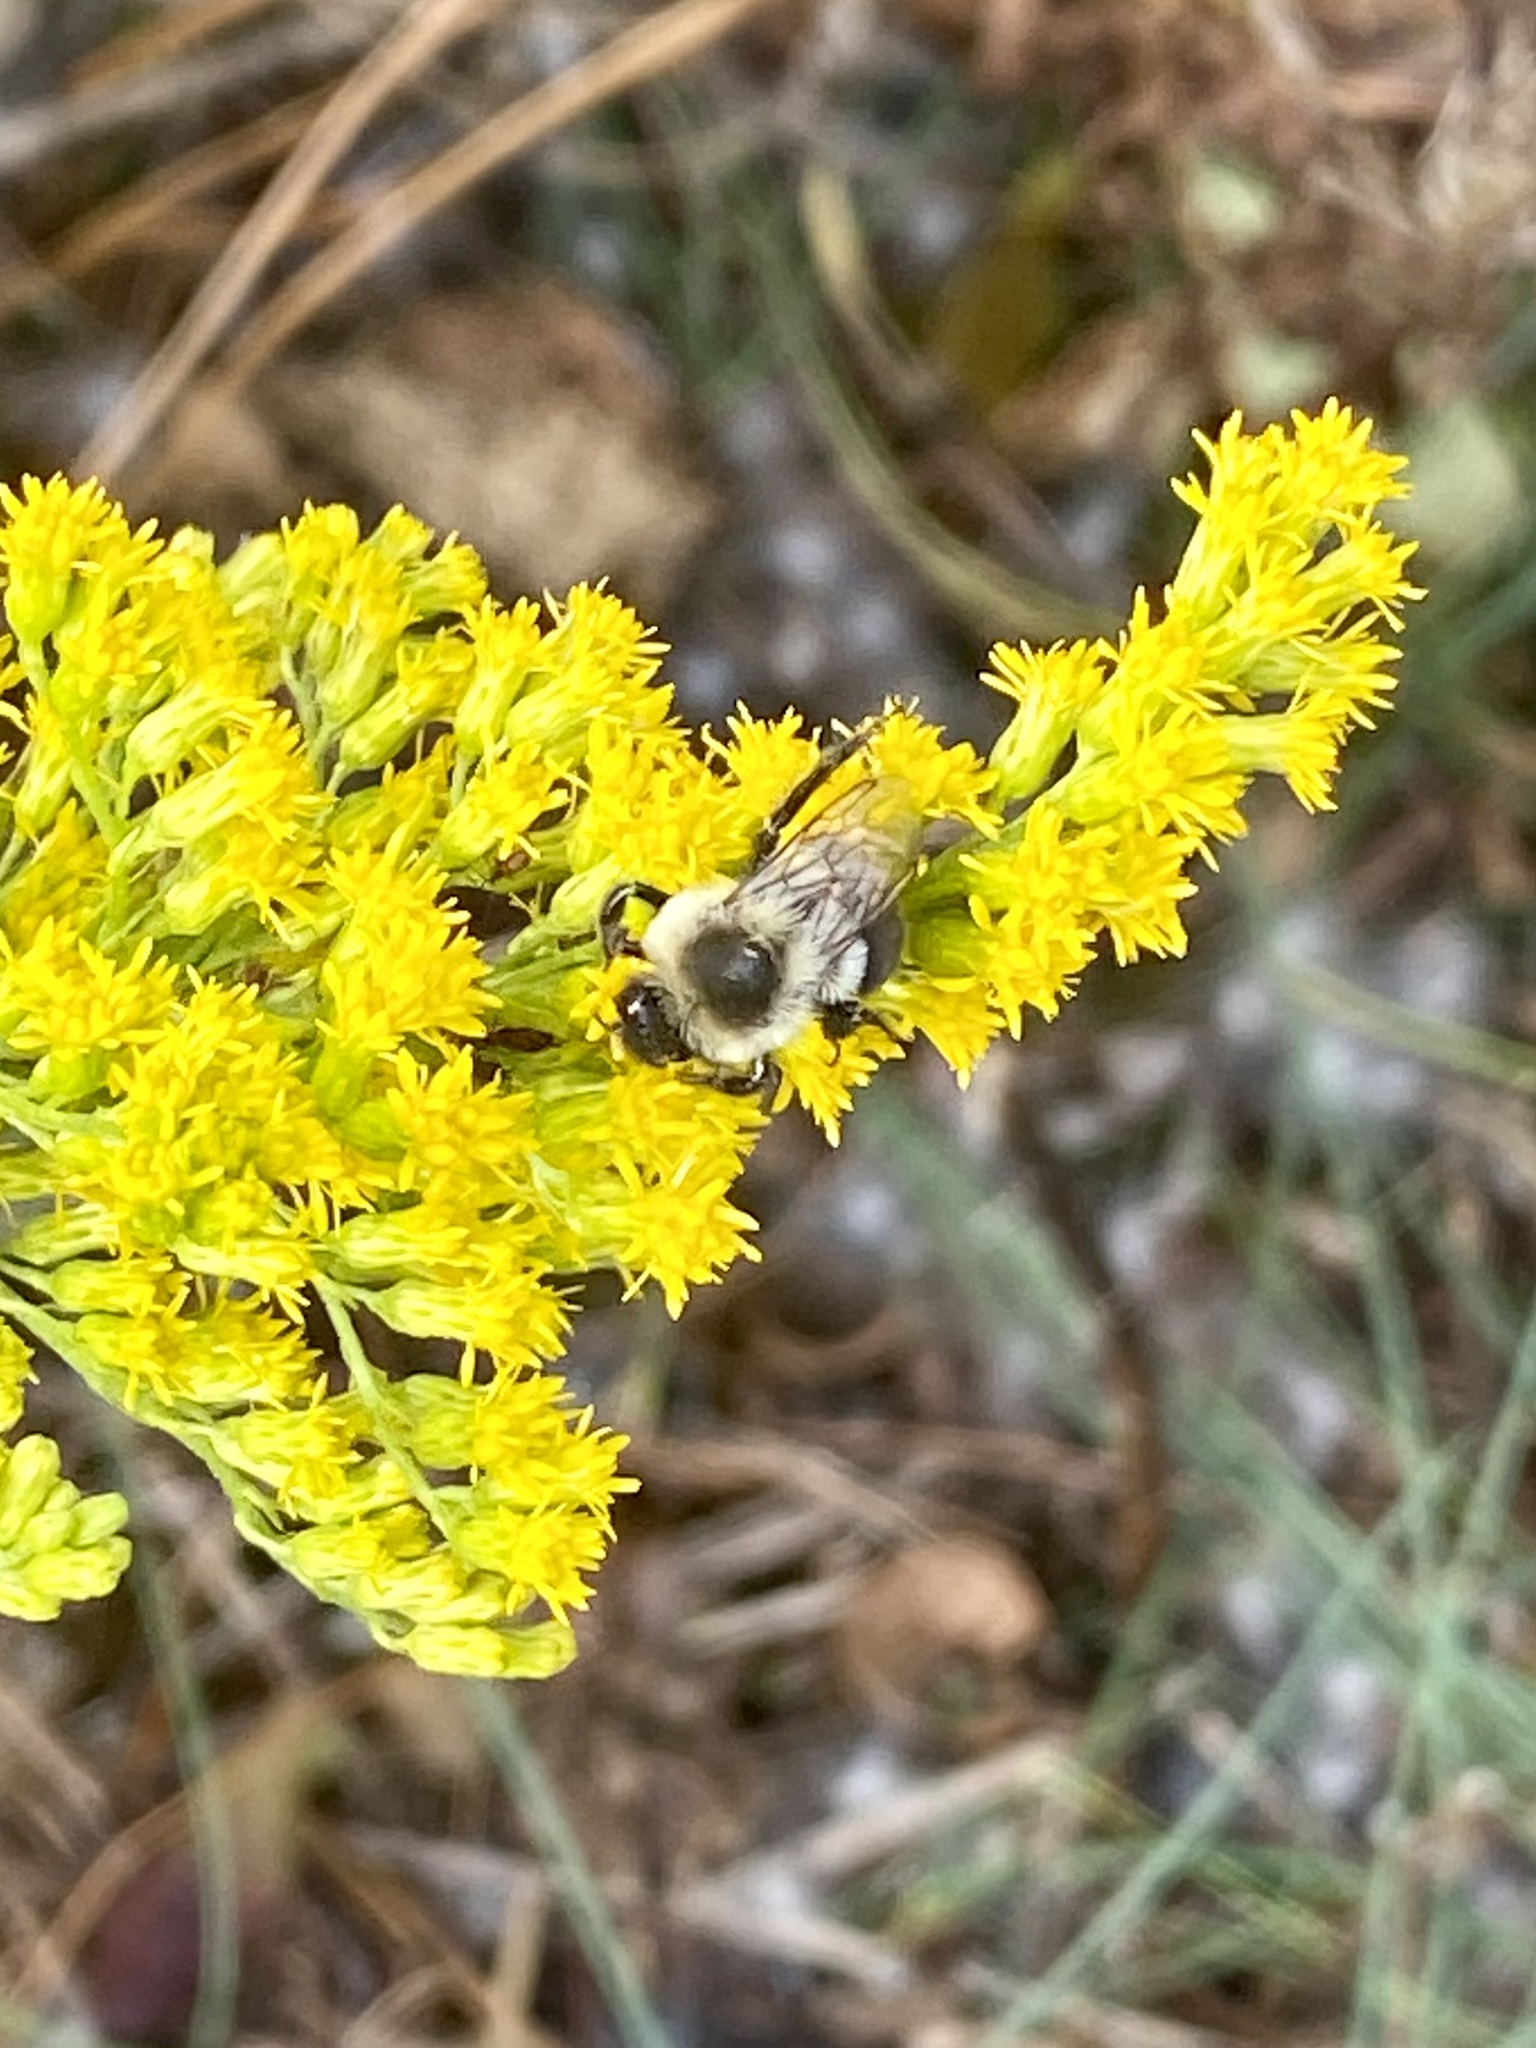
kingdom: Animalia
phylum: Arthropoda
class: Insecta
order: Hymenoptera
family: Apidae
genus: Bombus
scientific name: Bombus impatiens
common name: Common eastern bumble bee
